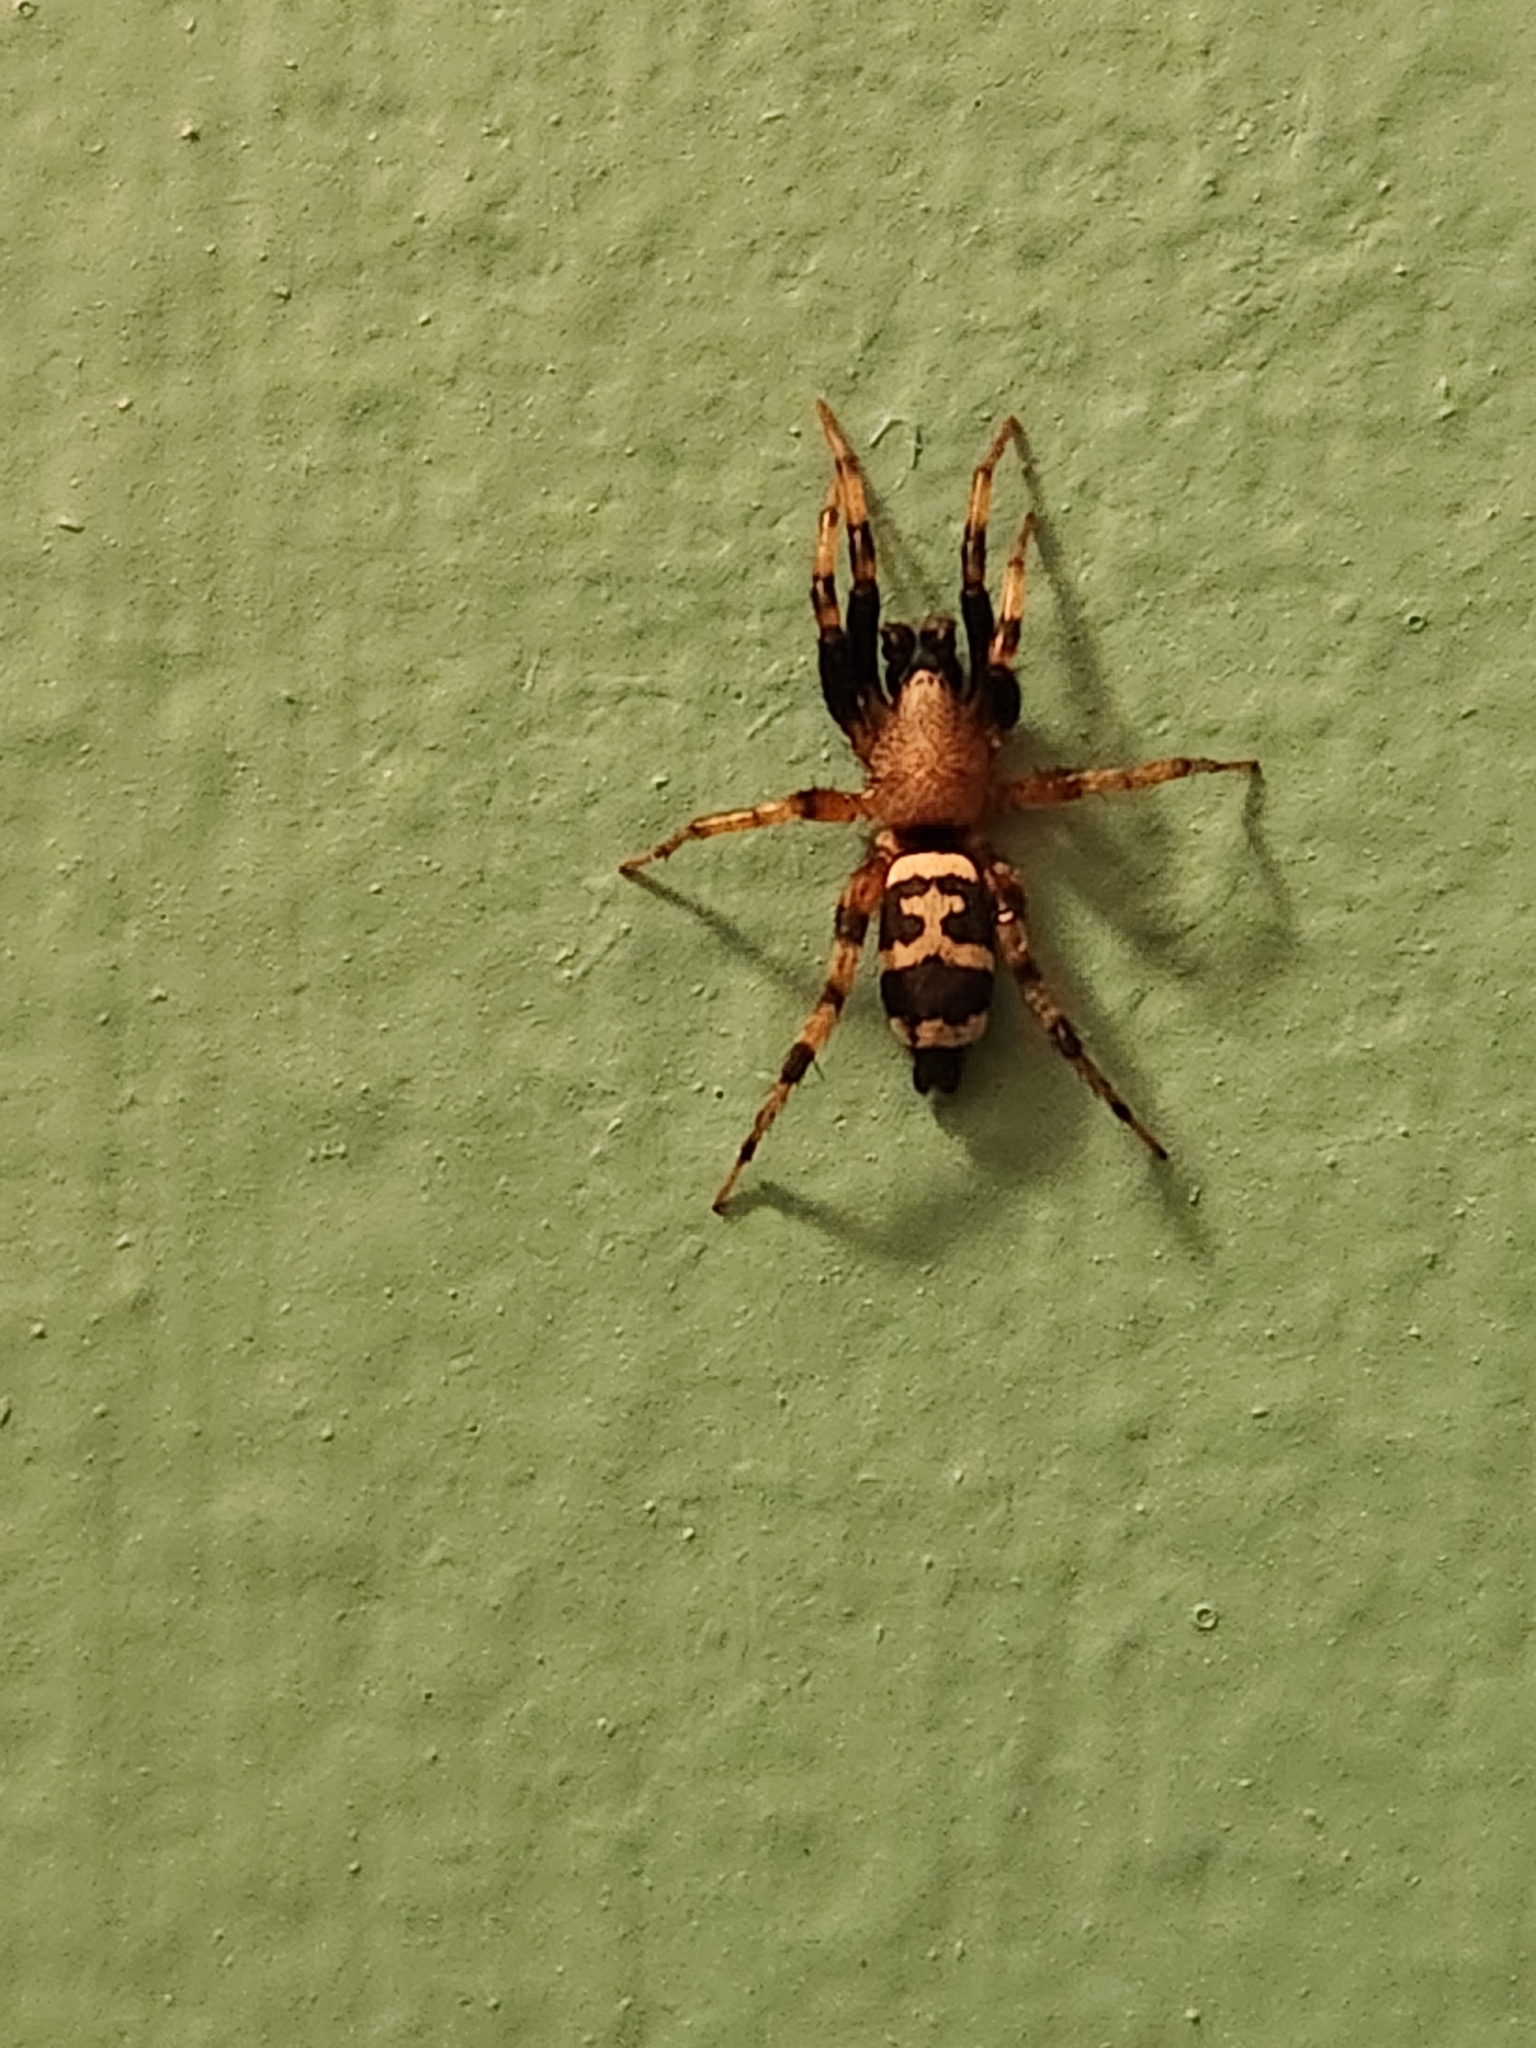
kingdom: Animalia
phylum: Arthropoda
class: Arachnida
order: Araneae
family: Gnaphosidae
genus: Sergiolus
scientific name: Sergiolus capulatus
